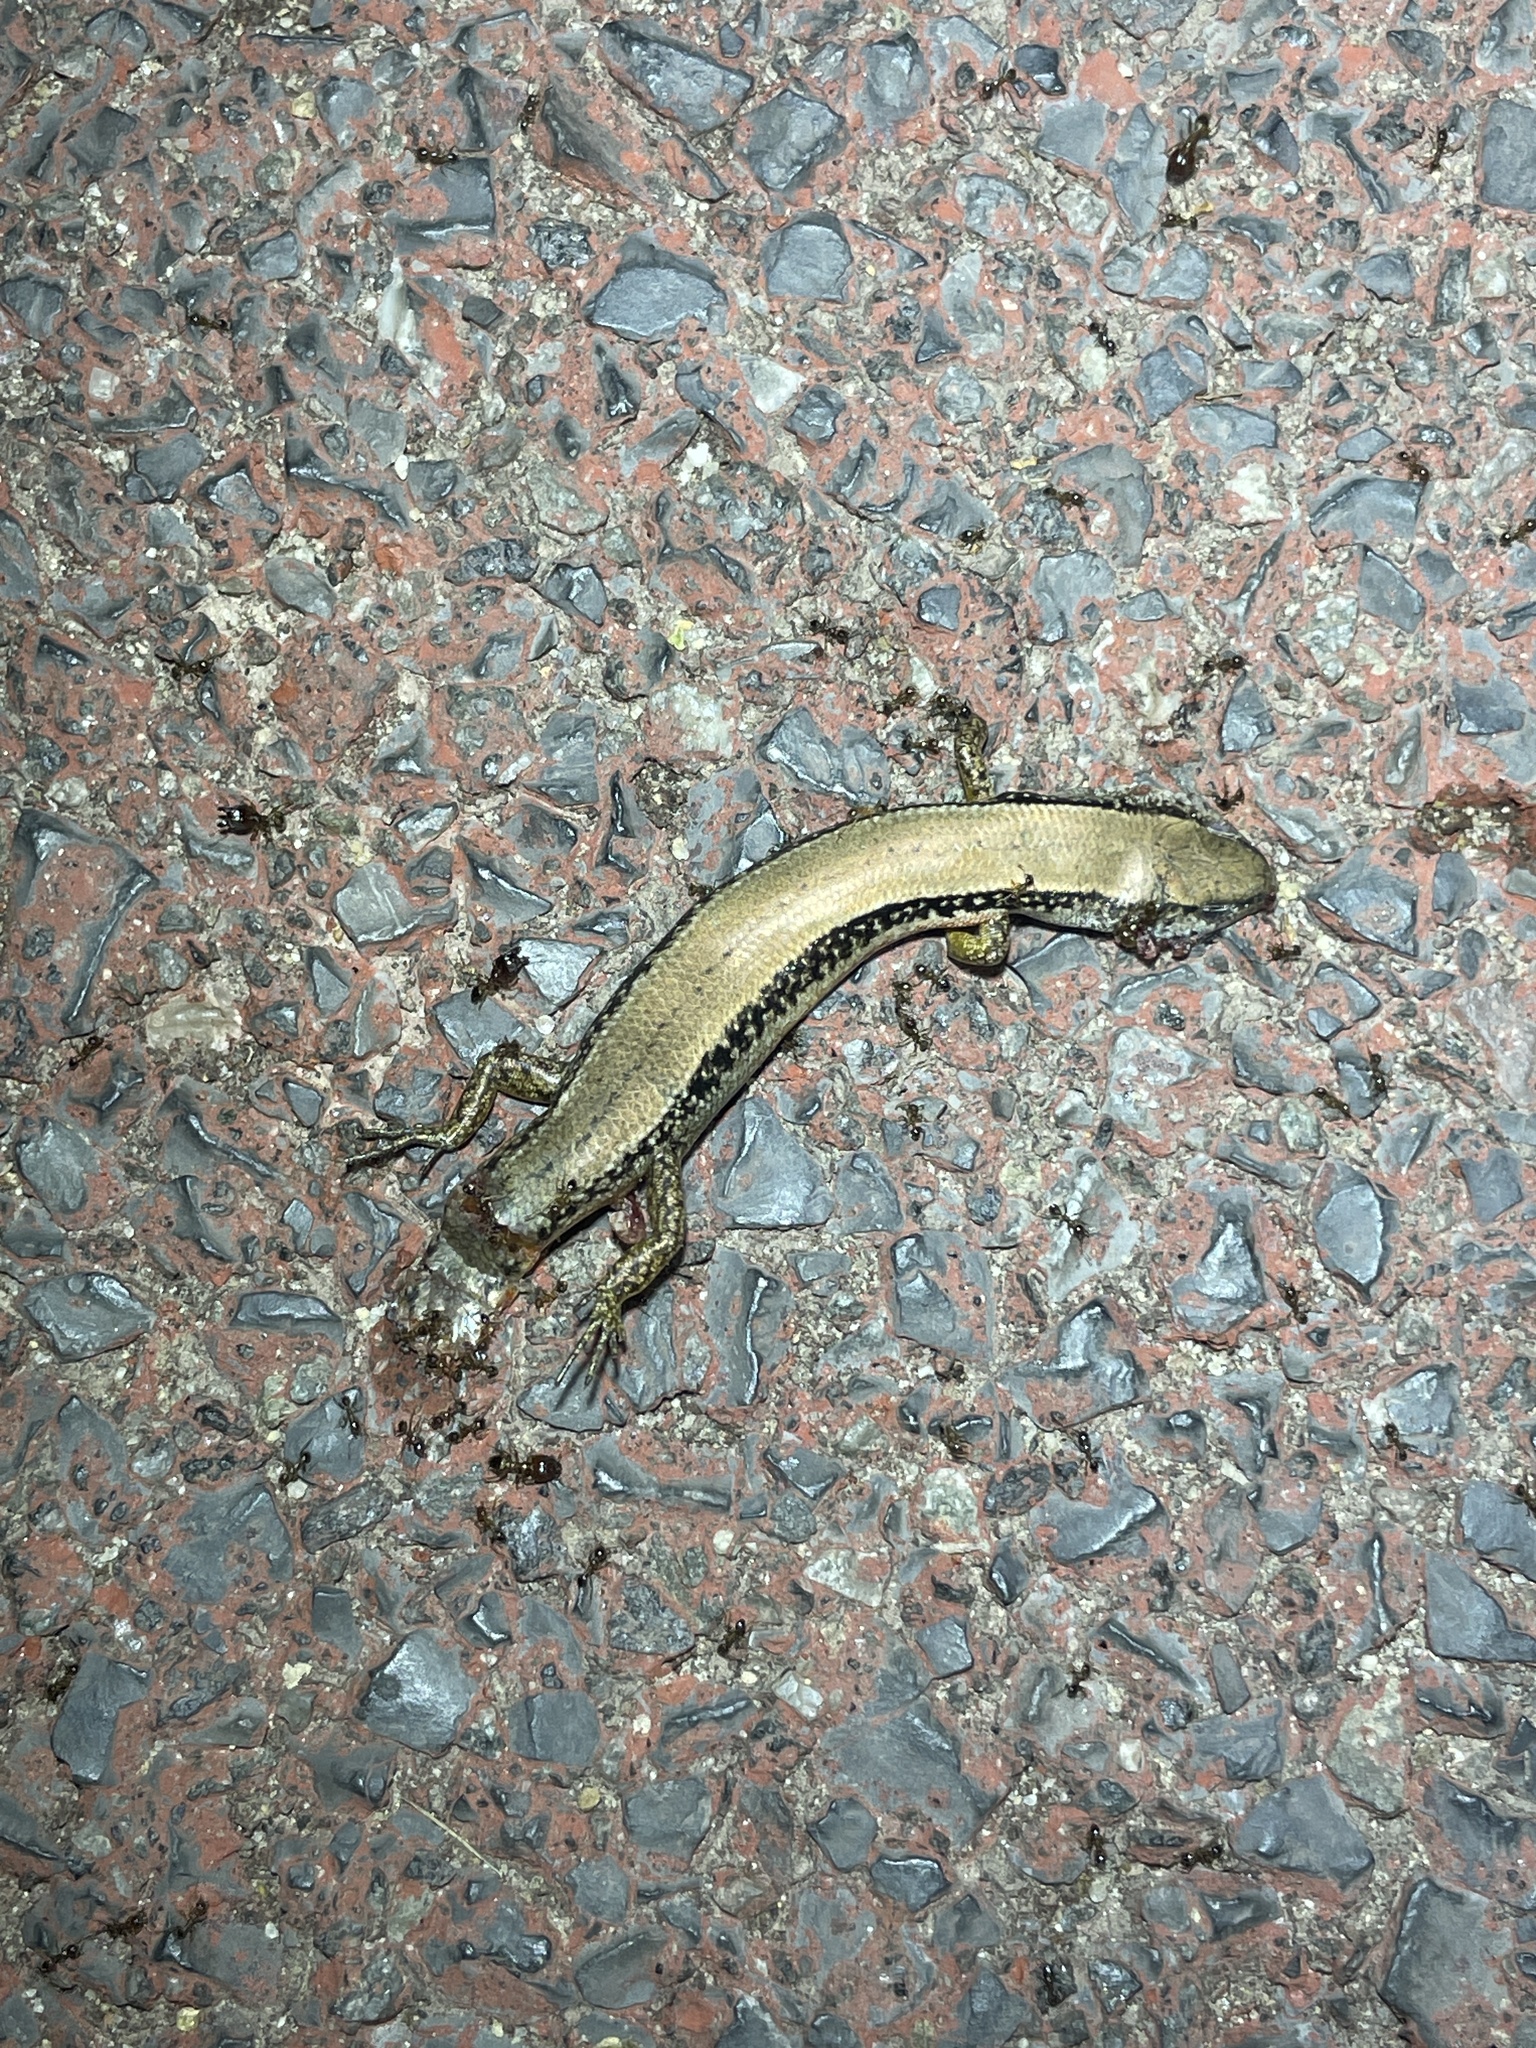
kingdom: Animalia
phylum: Chordata
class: Squamata
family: Scincidae
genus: Scincella
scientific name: Scincella reevesii
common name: Reeves’ smooth gecko
